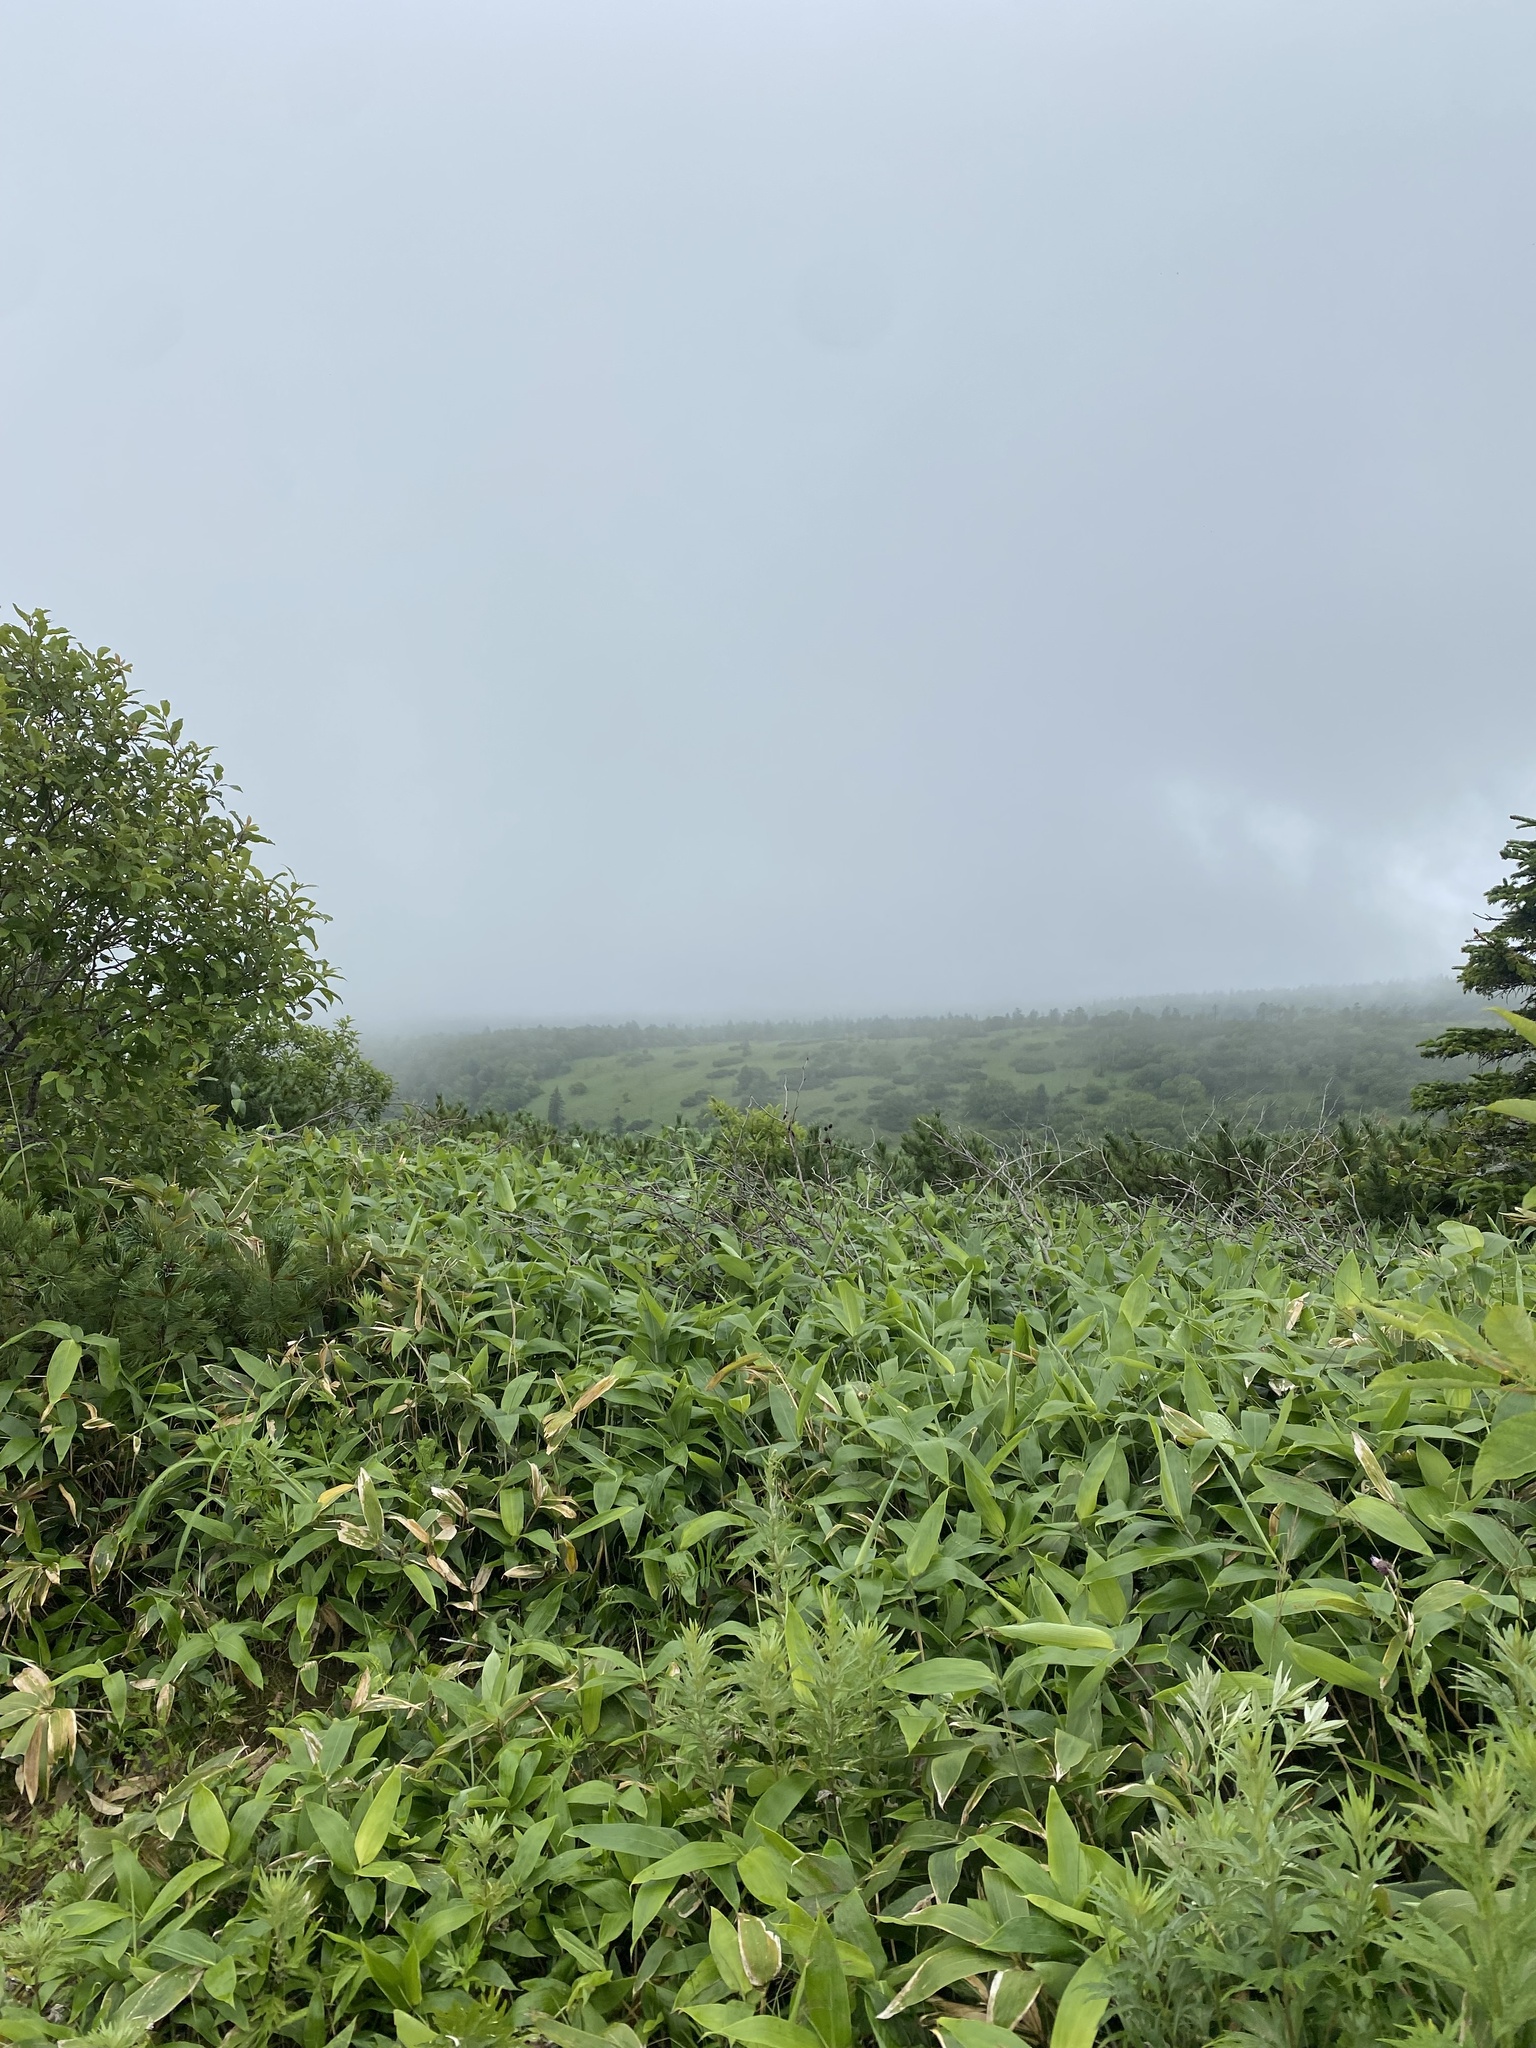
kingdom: Plantae
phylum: Tracheophyta
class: Liliopsida
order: Poales
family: Poaceae
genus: Sasa
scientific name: Sasa kurilensis
